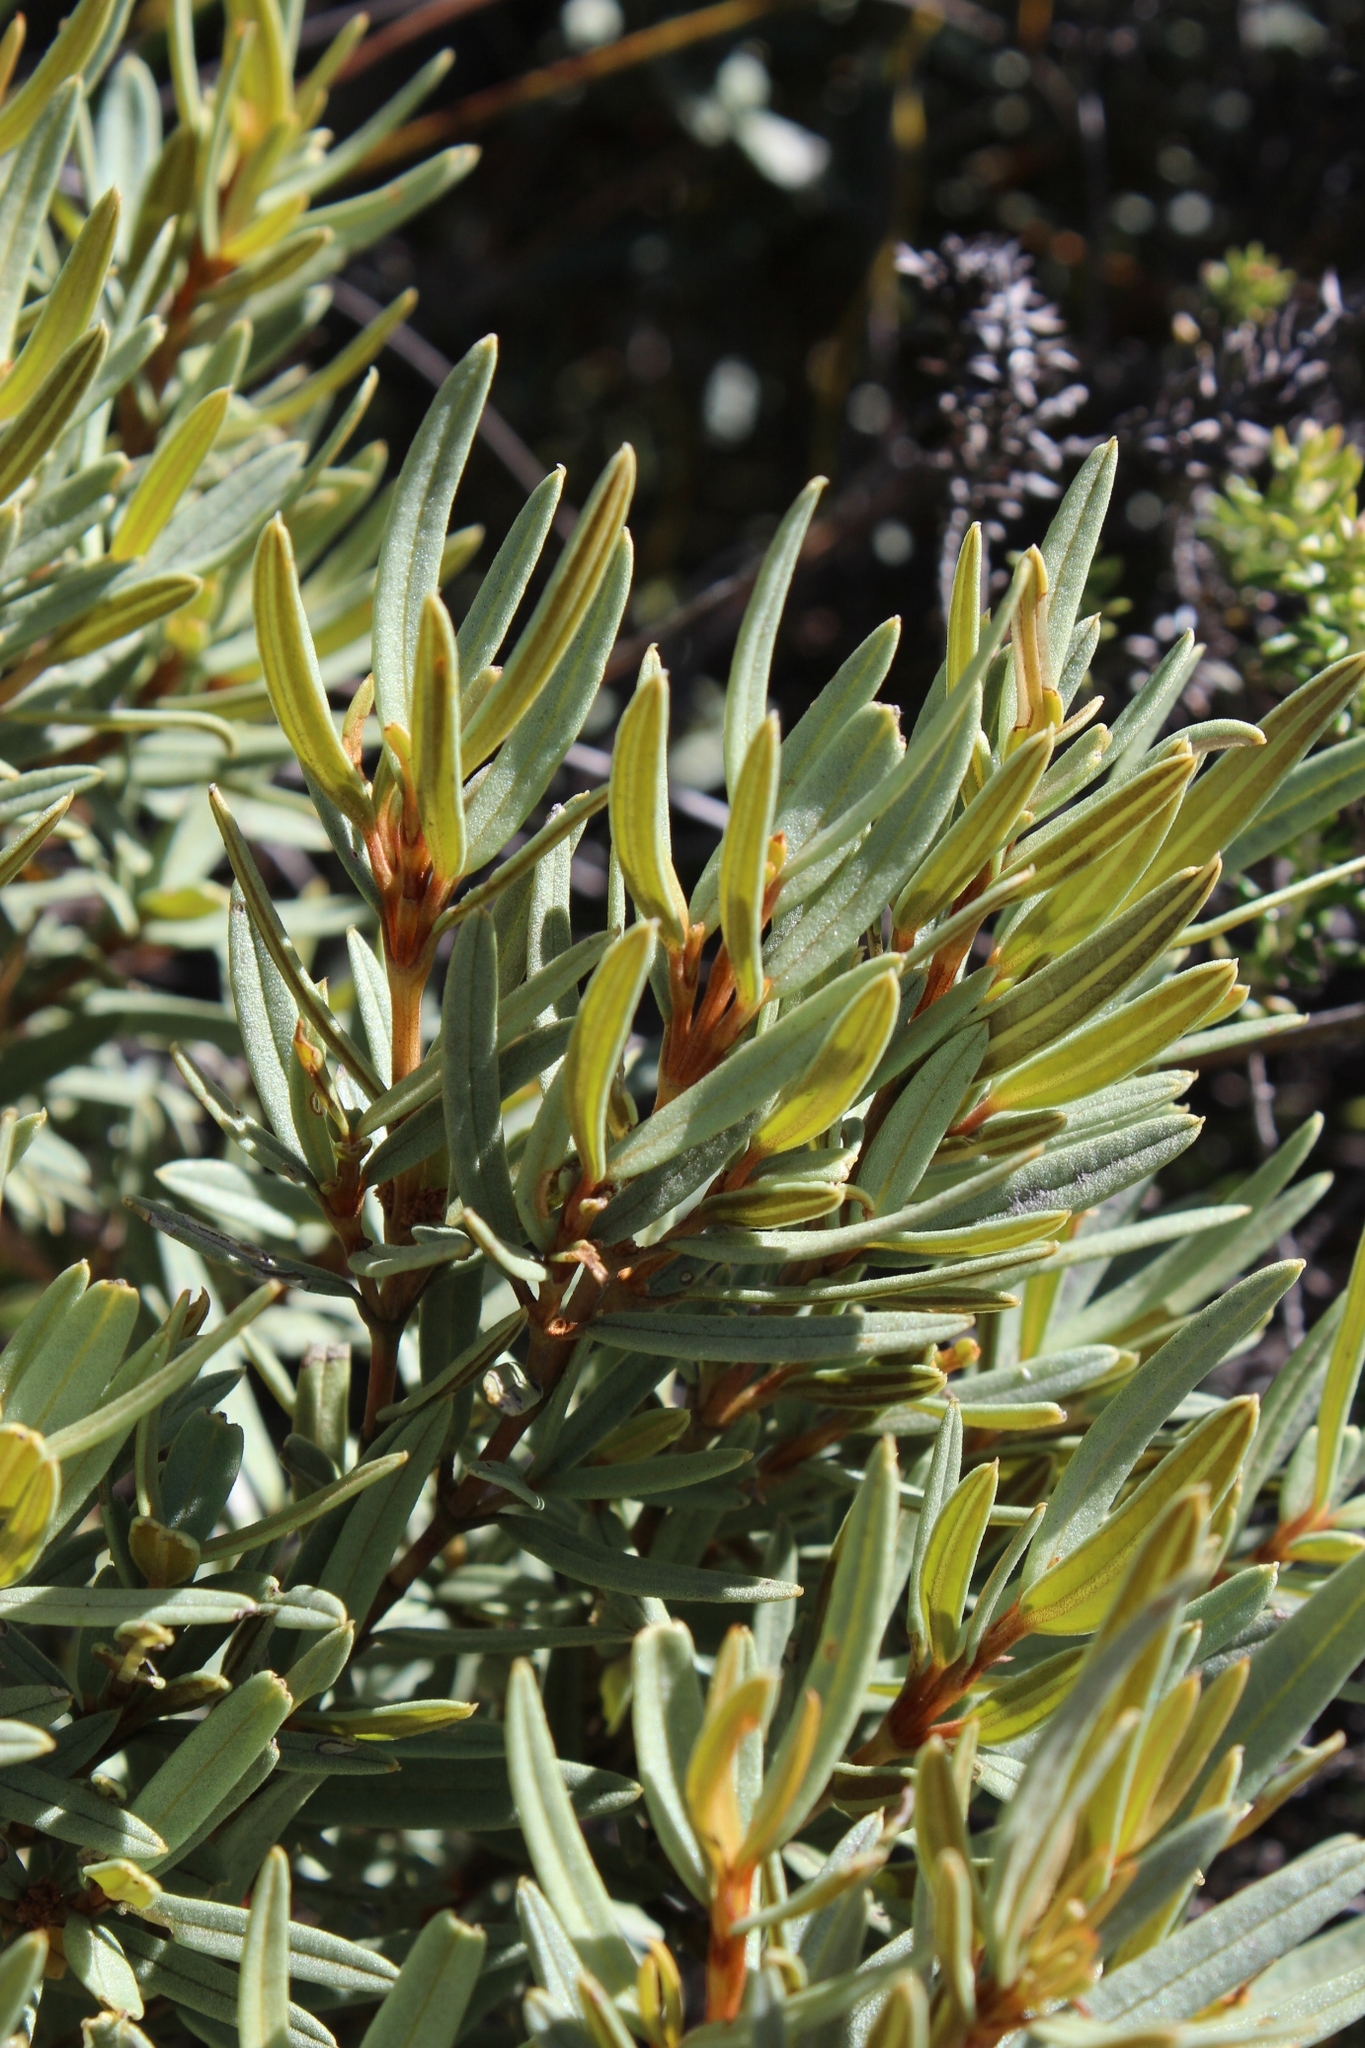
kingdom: Plantae
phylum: Tracheophyta
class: Magnoliopsida
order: Cornales
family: Grubbiaceae
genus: Grubbia
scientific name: Grubbia tomentosa
